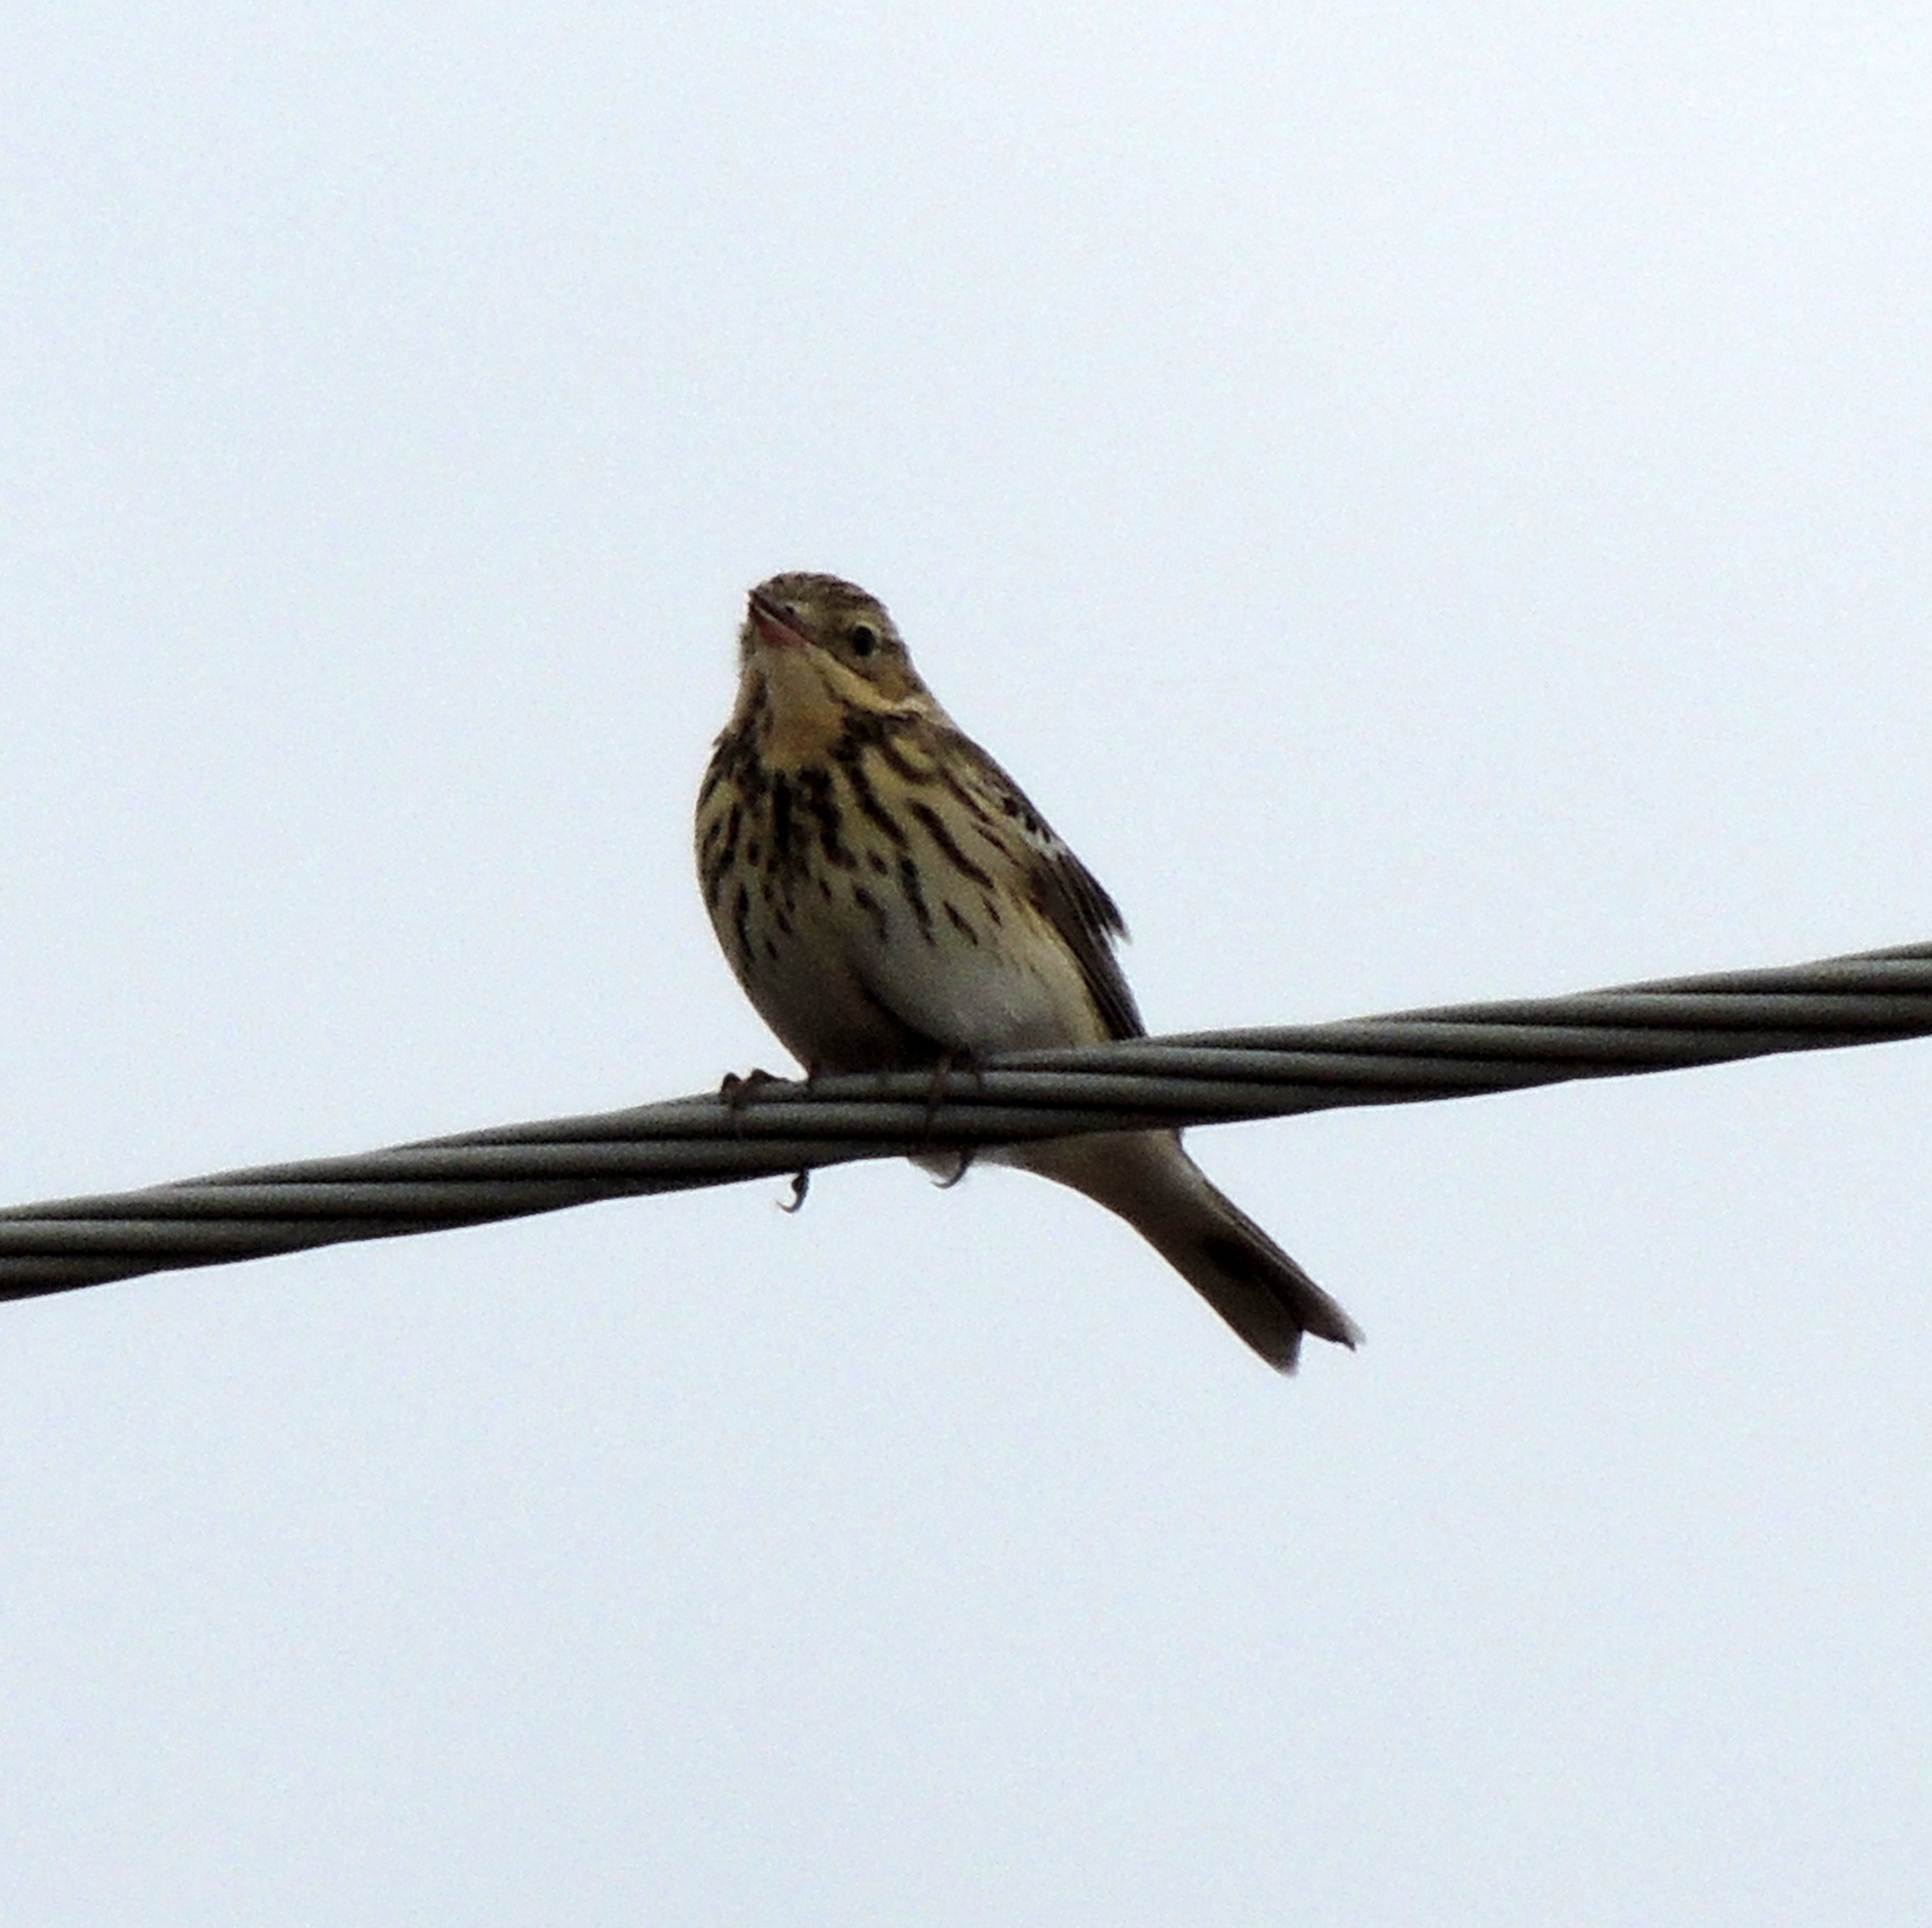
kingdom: Animalia
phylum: Chordata
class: Aves
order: Passeriformes
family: Motacillidae
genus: Anthus
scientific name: Anthus trivialis
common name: Tree pipit
